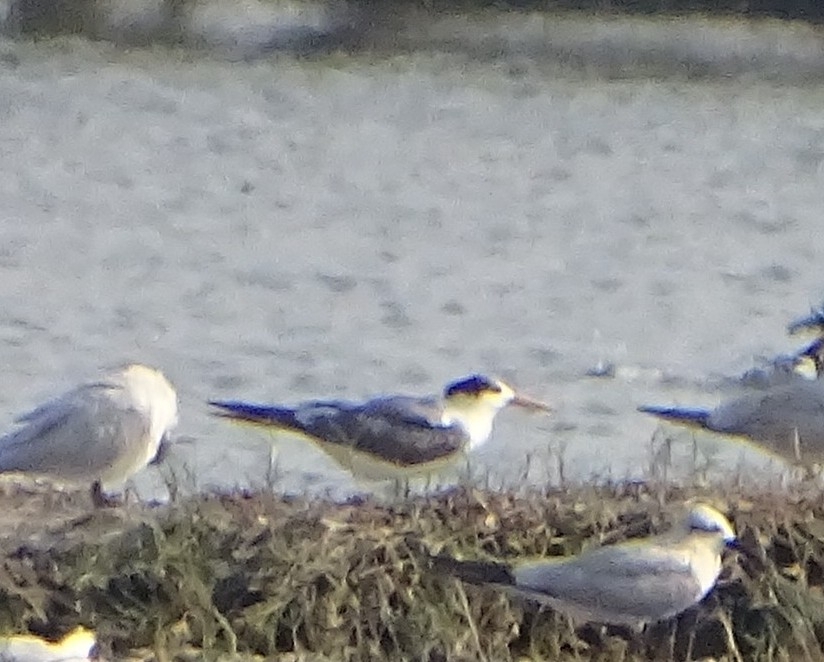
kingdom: Animalia
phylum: Chordata
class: Aves
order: Charadriiformes
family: Laridae
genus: Thalasseus
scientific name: Thalasseus bergii
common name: Greater crested tern
